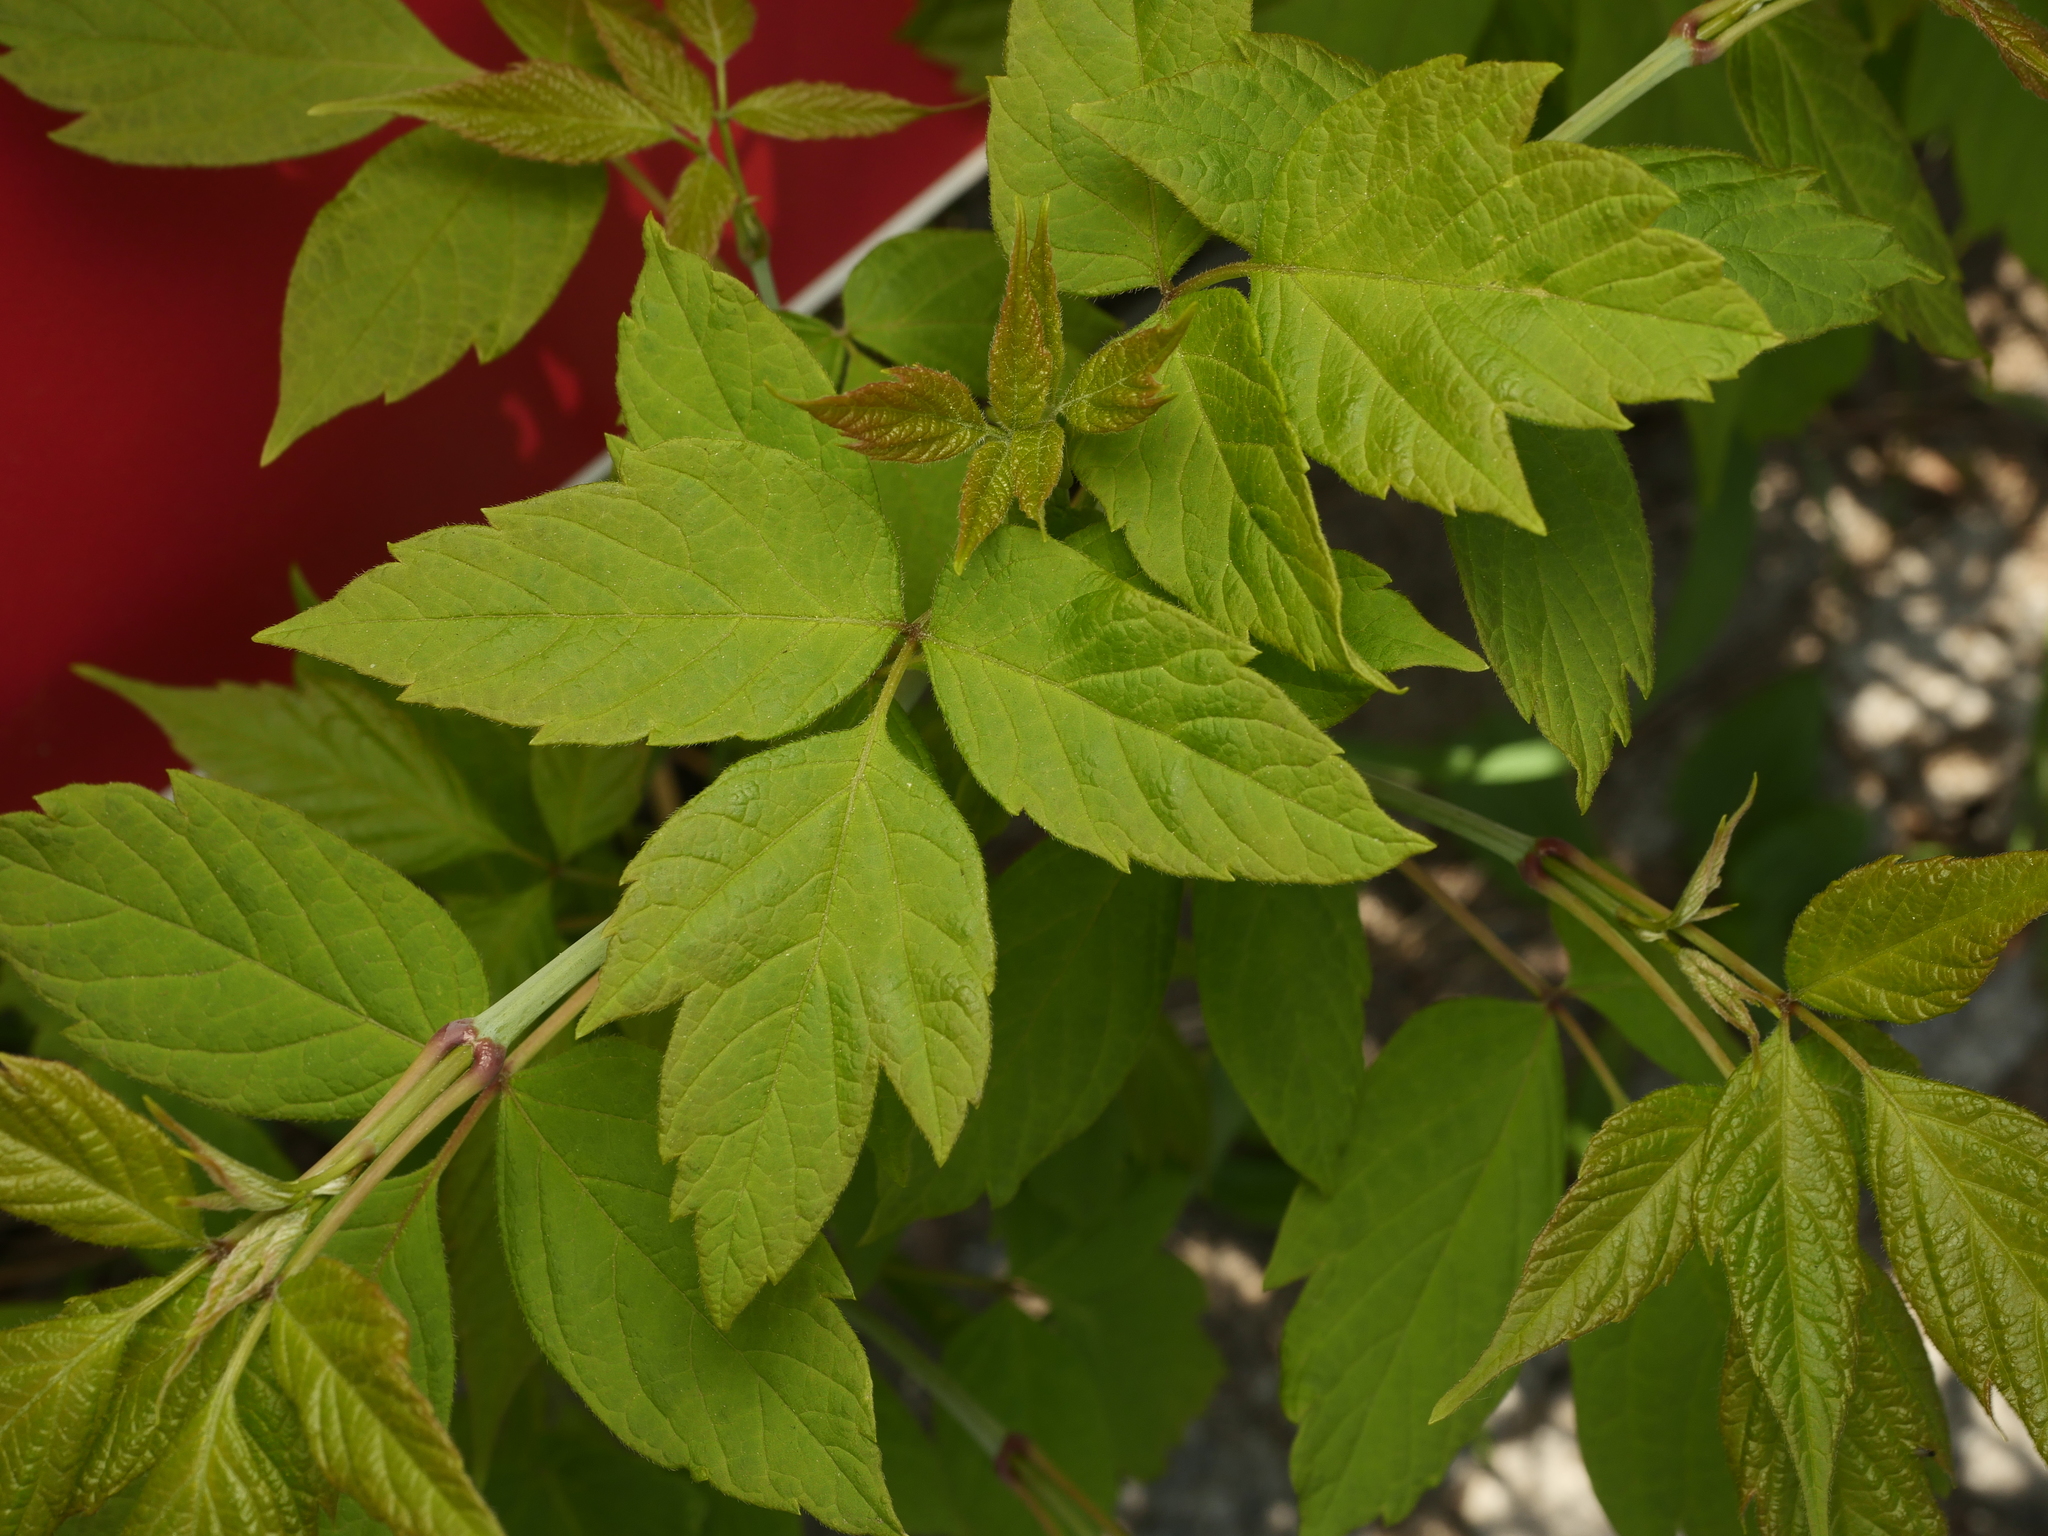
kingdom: Plantae
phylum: Tracheophyta
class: Magnoliopsida
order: Sapindales
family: Sapindaceae
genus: Acer
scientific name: Acer negundo
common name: Ashleaf maple
